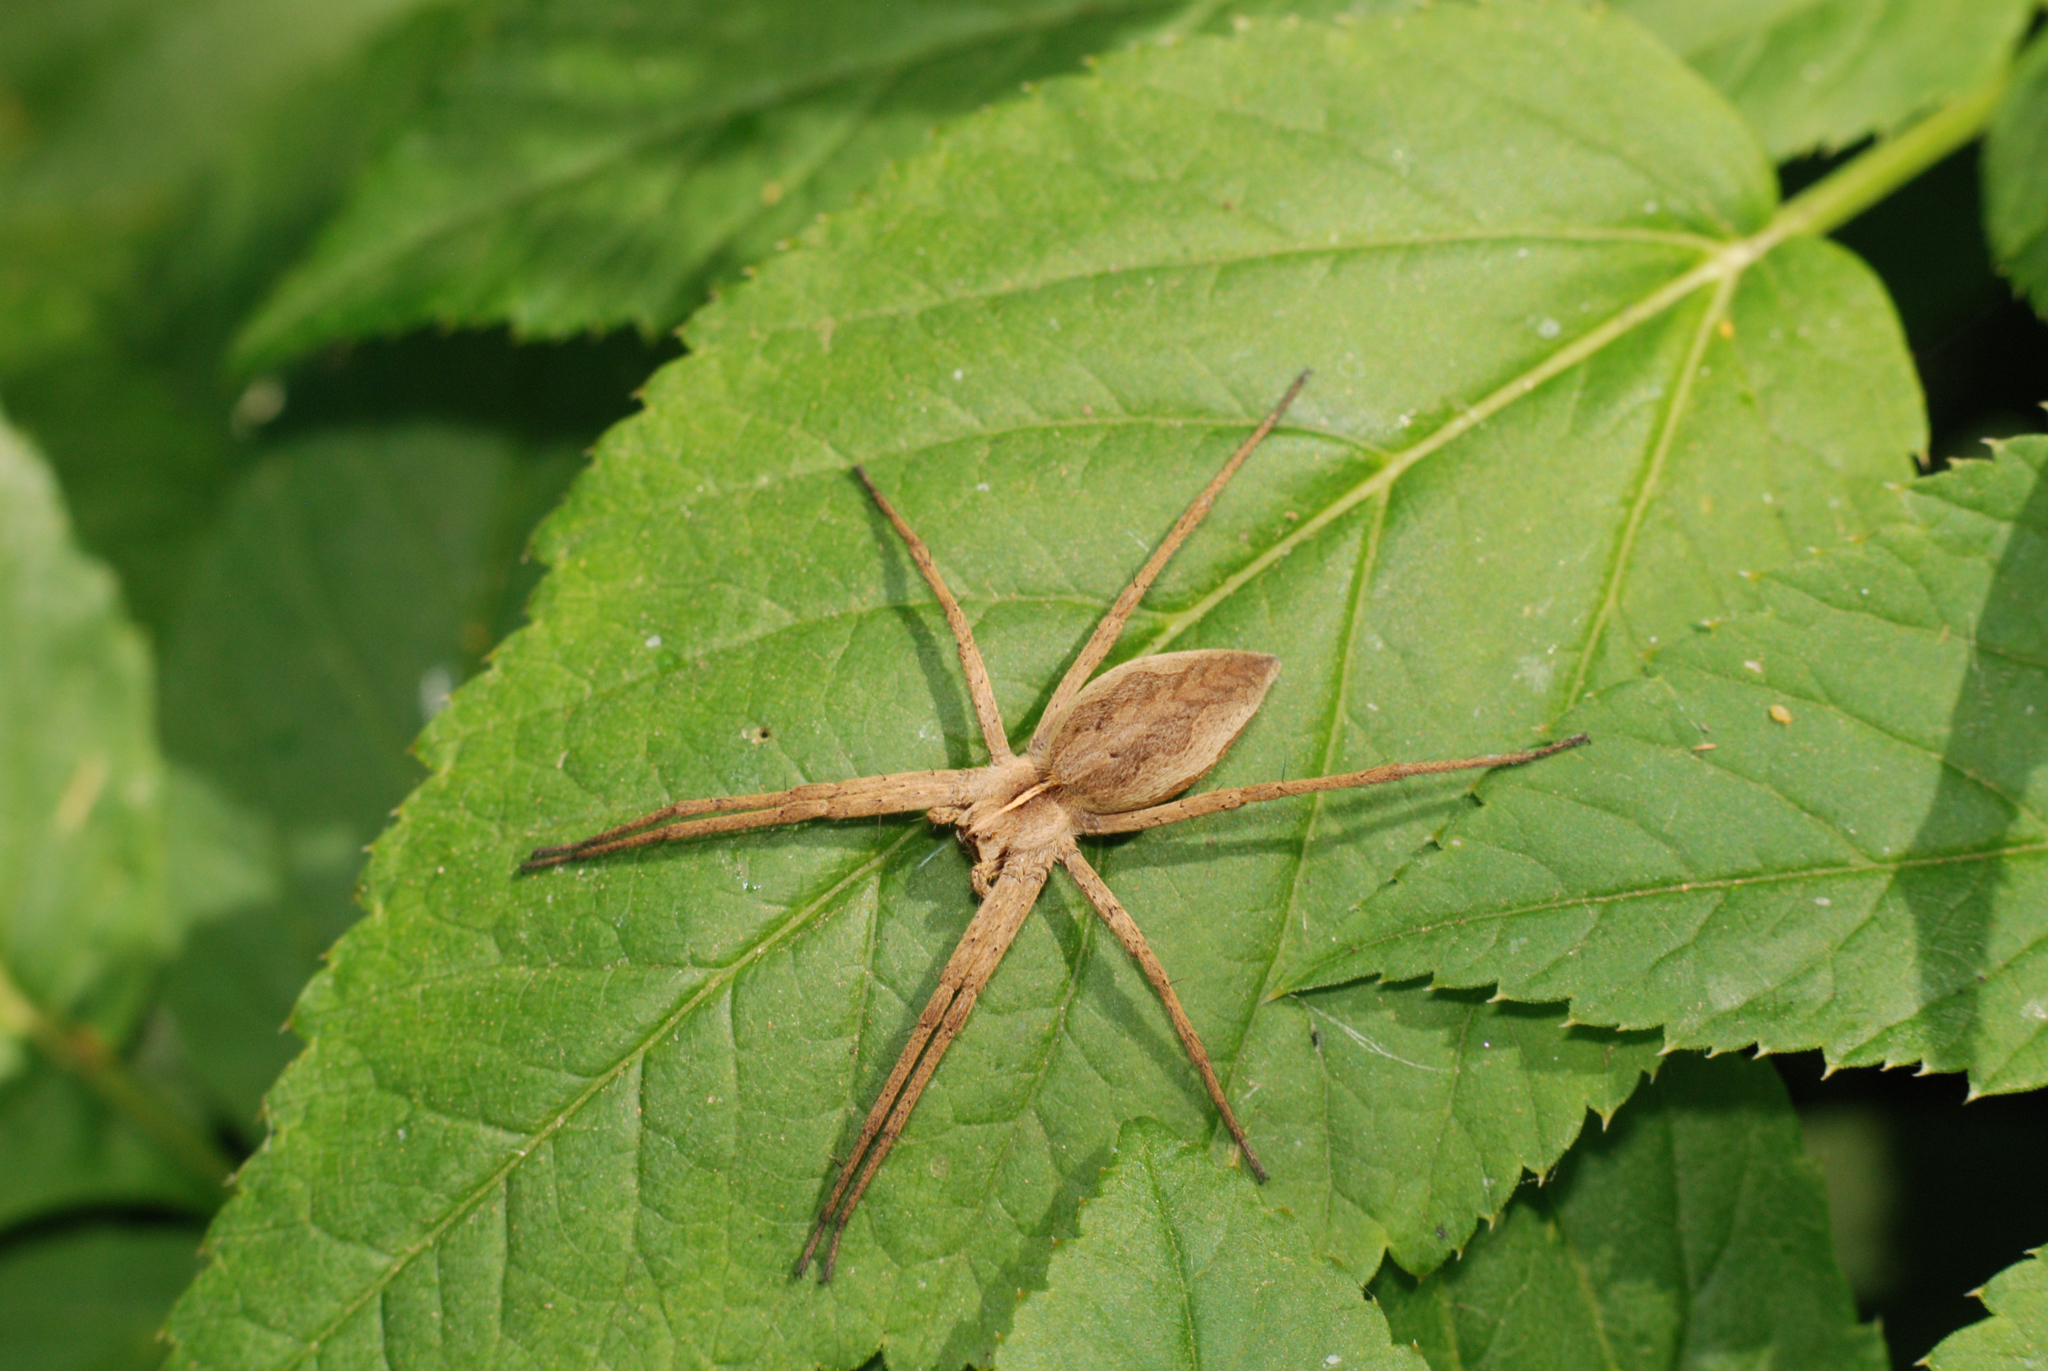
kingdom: Animalia
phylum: Arthropoda
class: Arachnida
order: Araneae
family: Pisauridae
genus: Pisaura
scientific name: Pisaura mirabilis
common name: Tent spider
